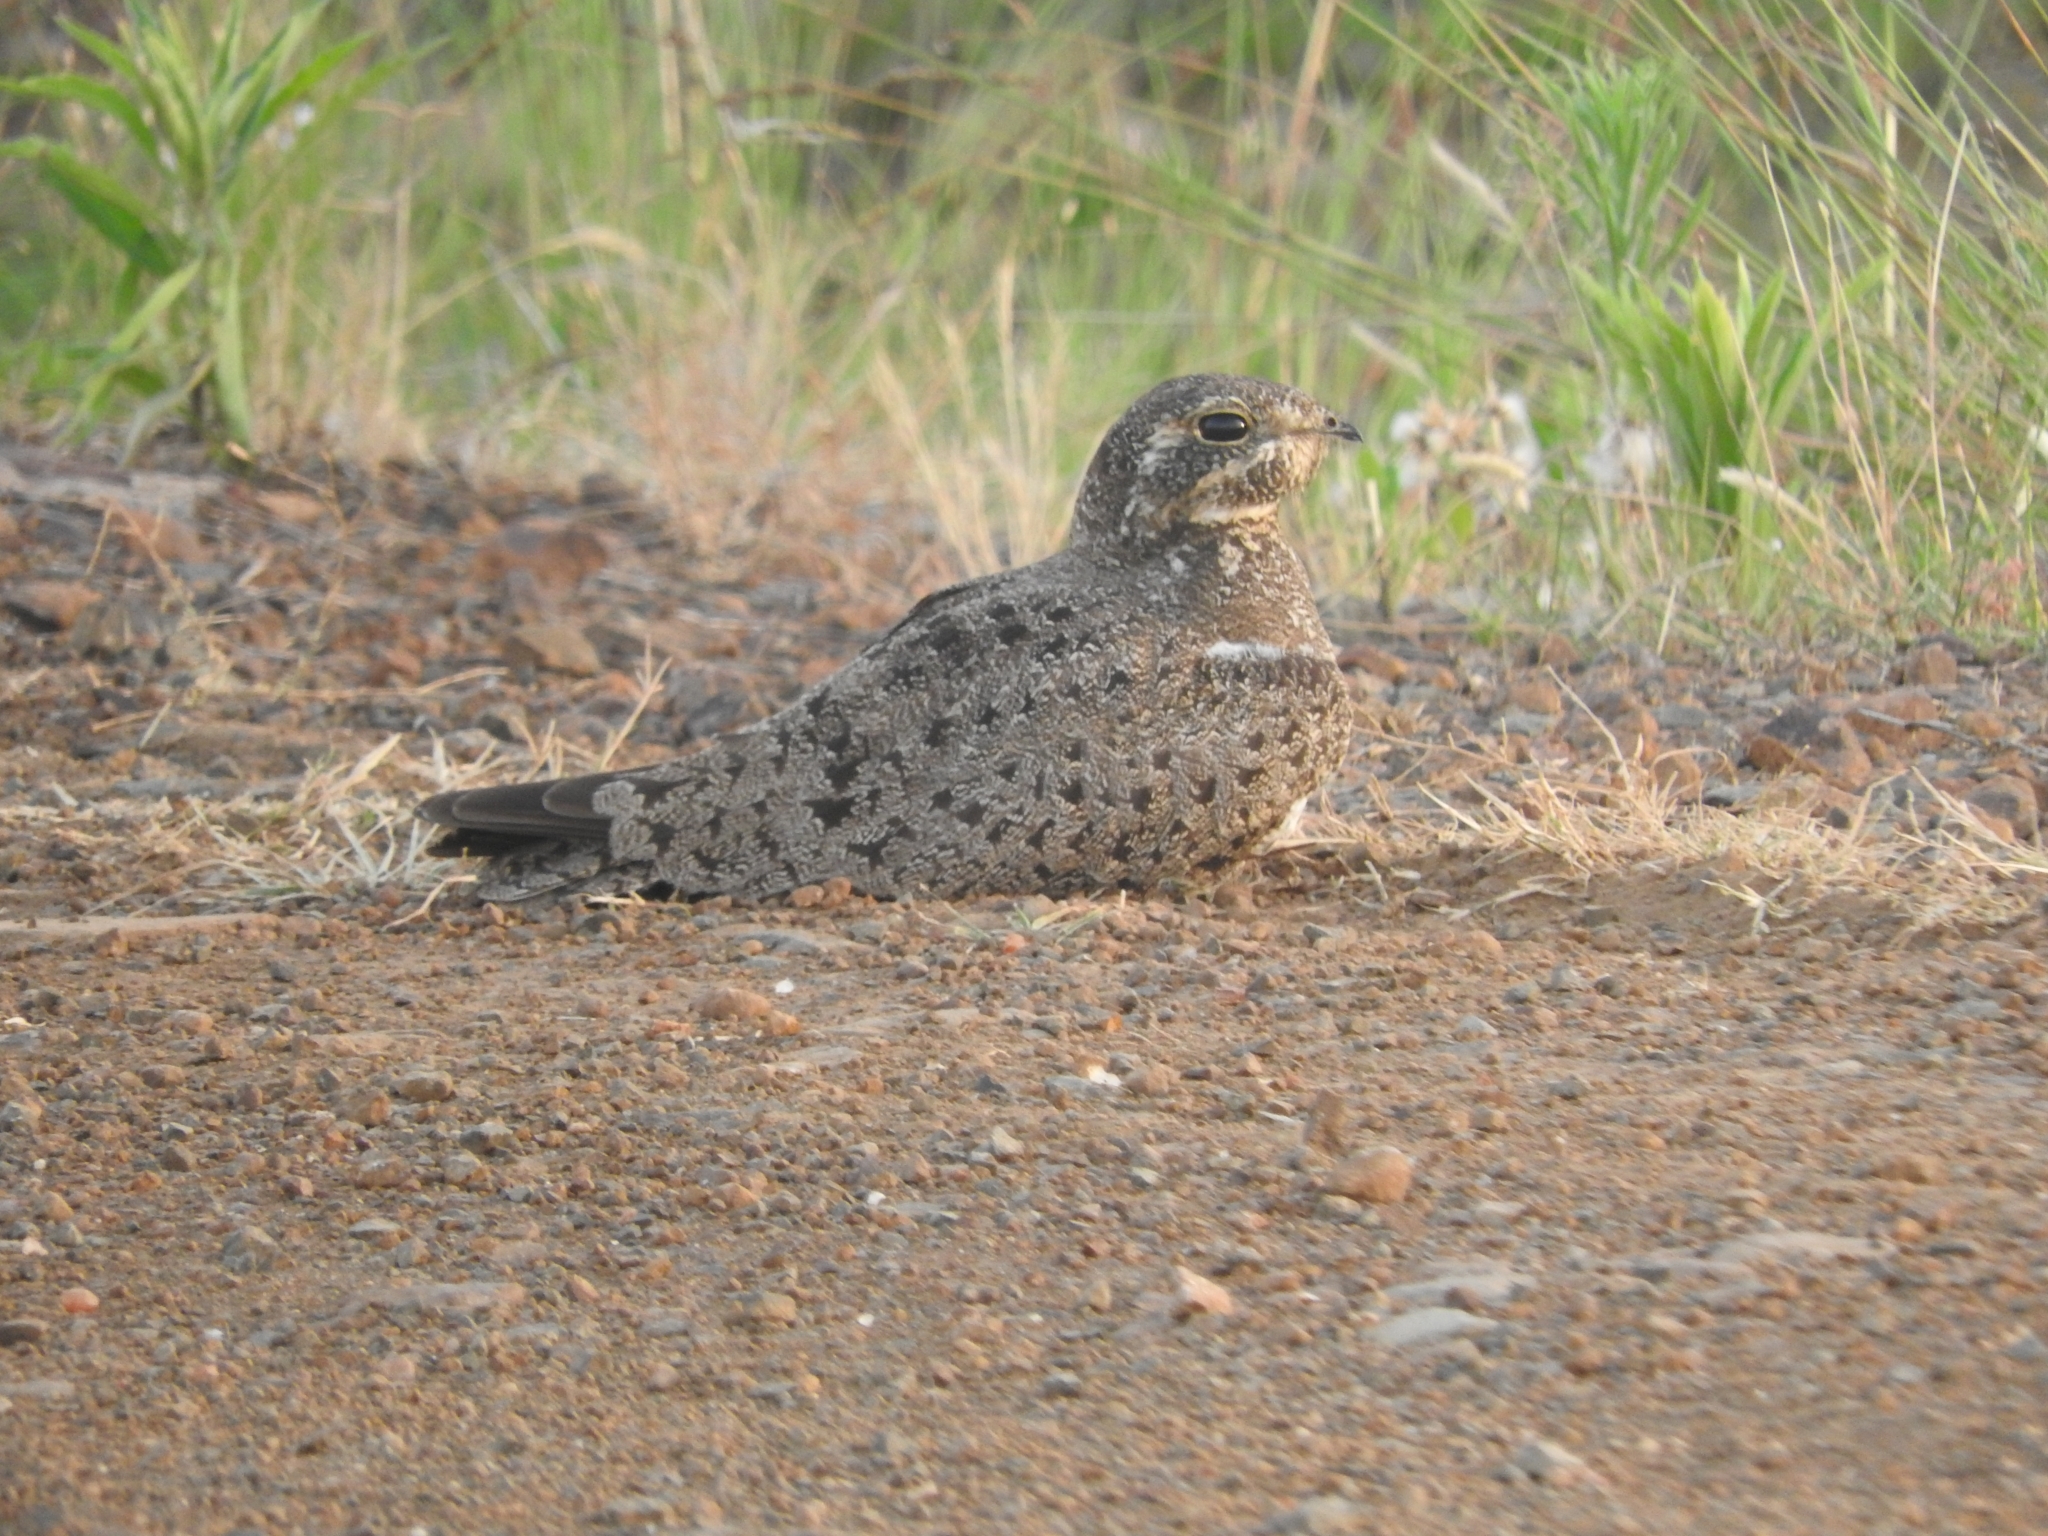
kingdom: Animalia
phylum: Chordata
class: Aves
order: Caprimulgiformes
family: Caprimulgidae
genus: Chordeiles
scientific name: Chordeiles nacunda
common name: Nacunda nighthawk
